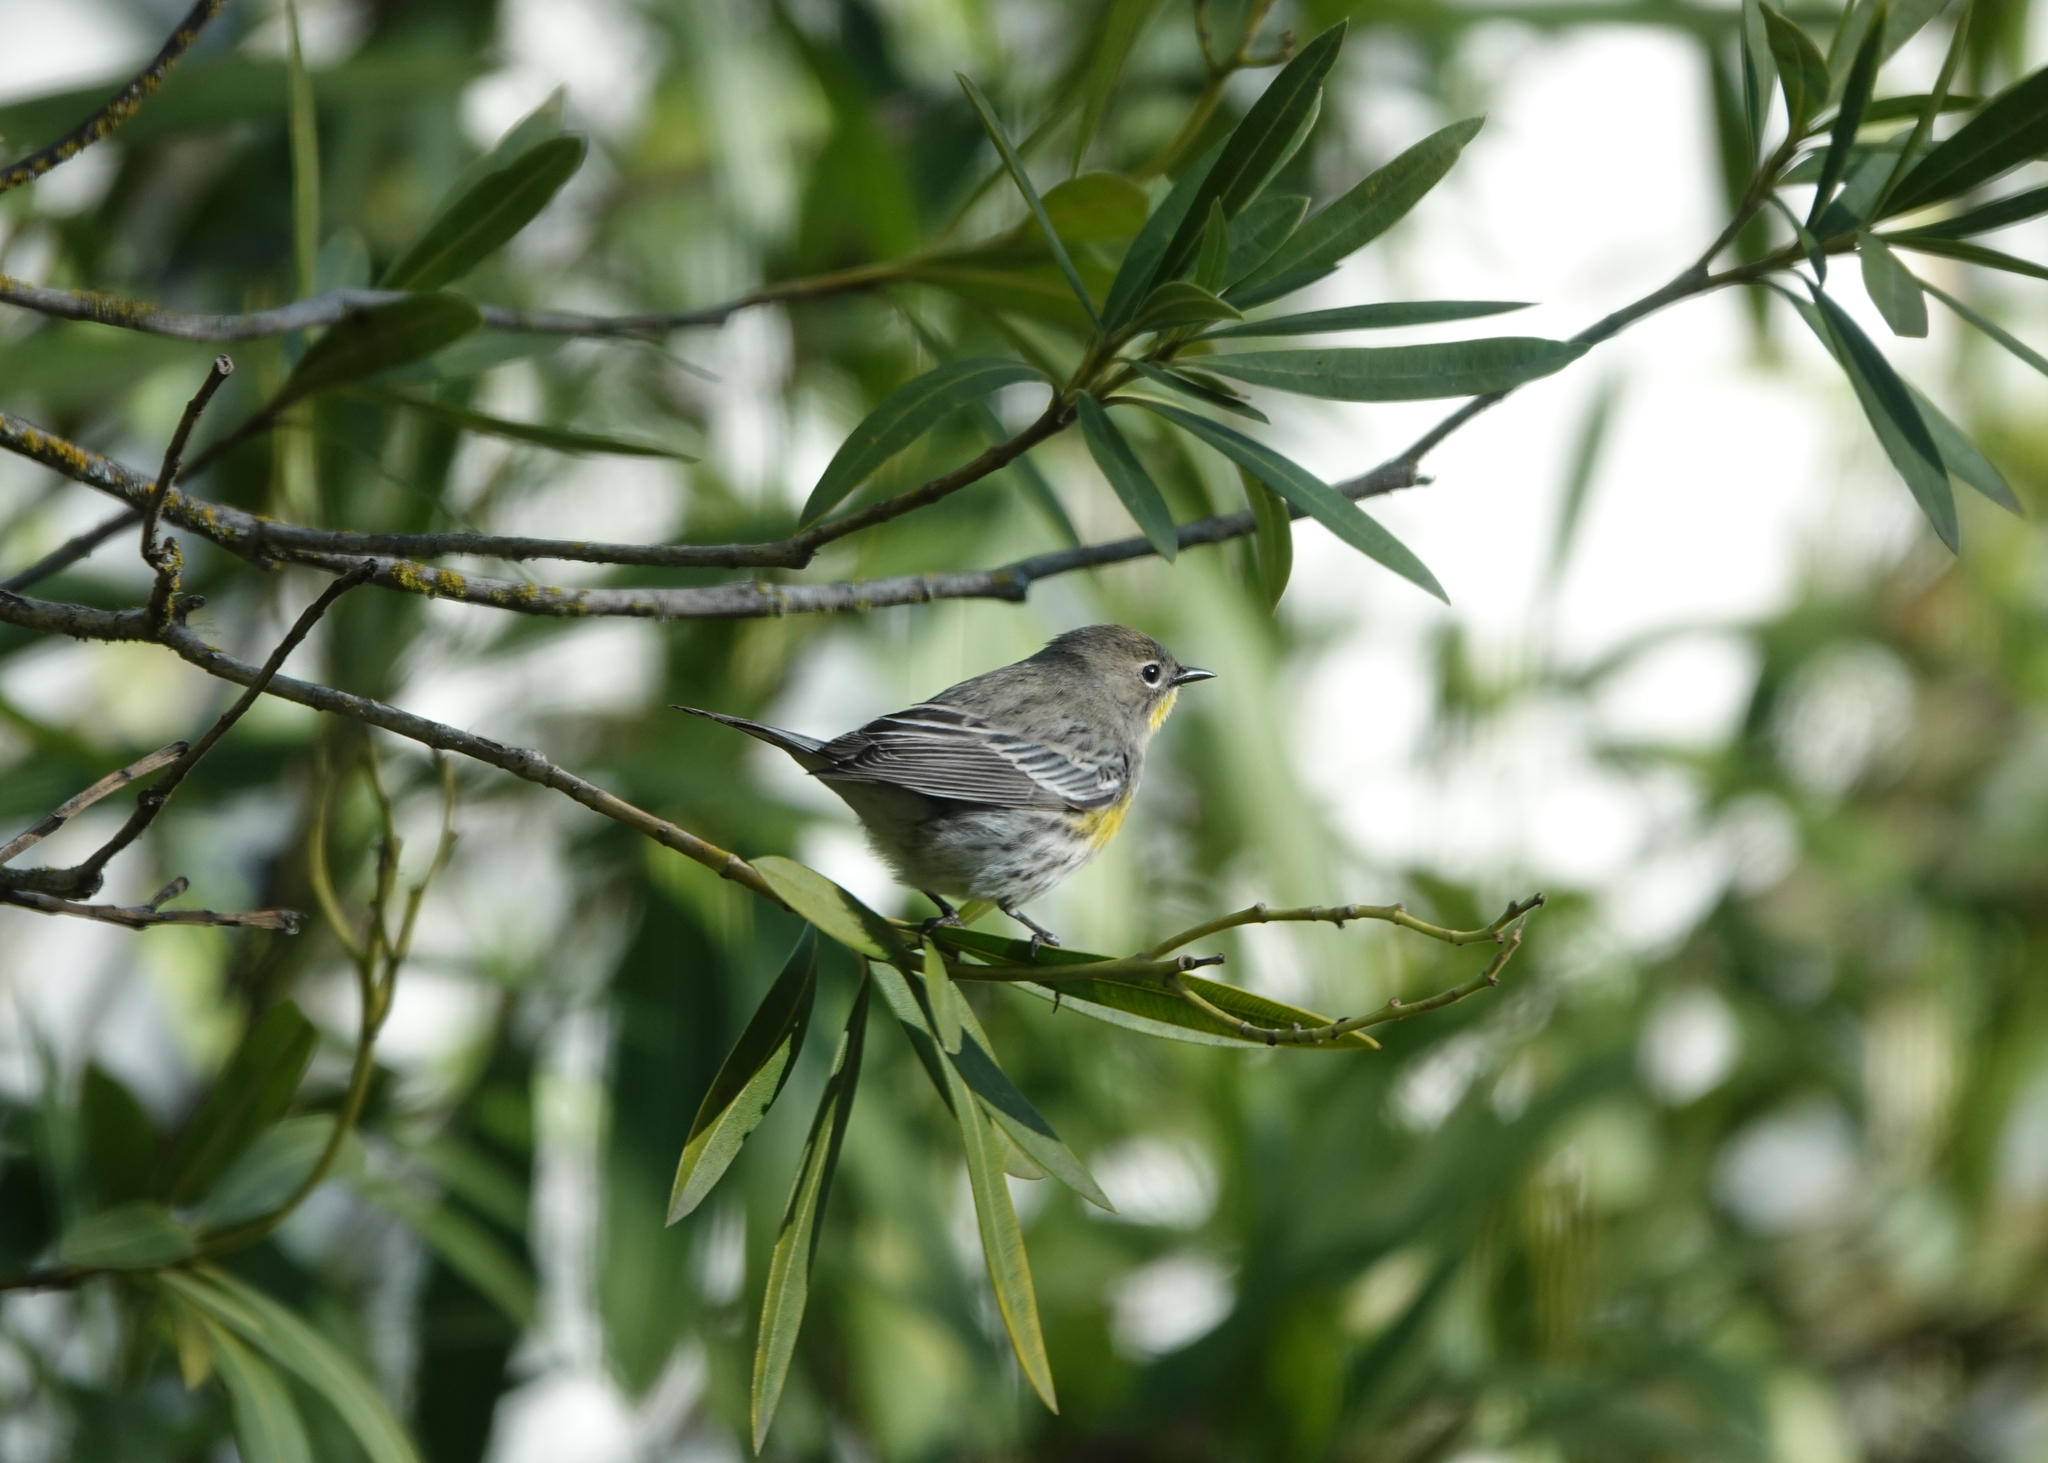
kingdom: Animalia
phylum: Chordata
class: Aves
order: Passeriformes
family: Parulidae
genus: Setophaga
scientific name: Setophaga coronata
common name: Myrtle warbler
